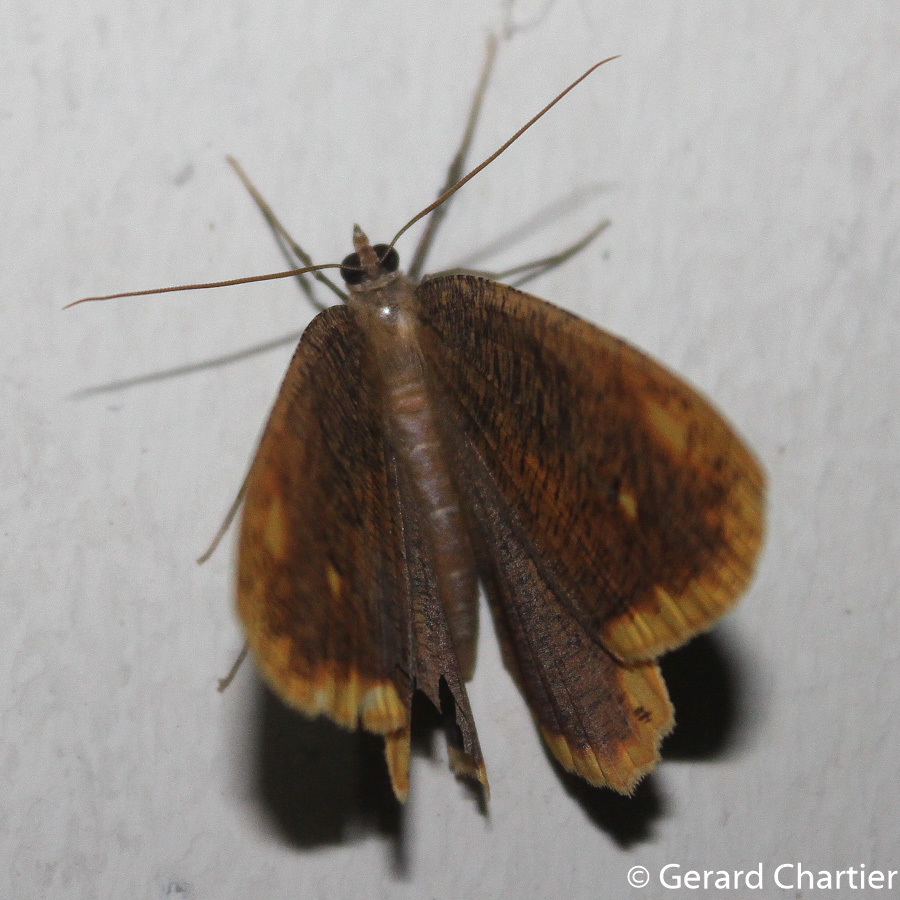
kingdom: Animalia
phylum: Arthropoda
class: Insecta
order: Lepidoptera
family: Geometridae
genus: Pareumelea
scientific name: Pareumelea hortensiata
